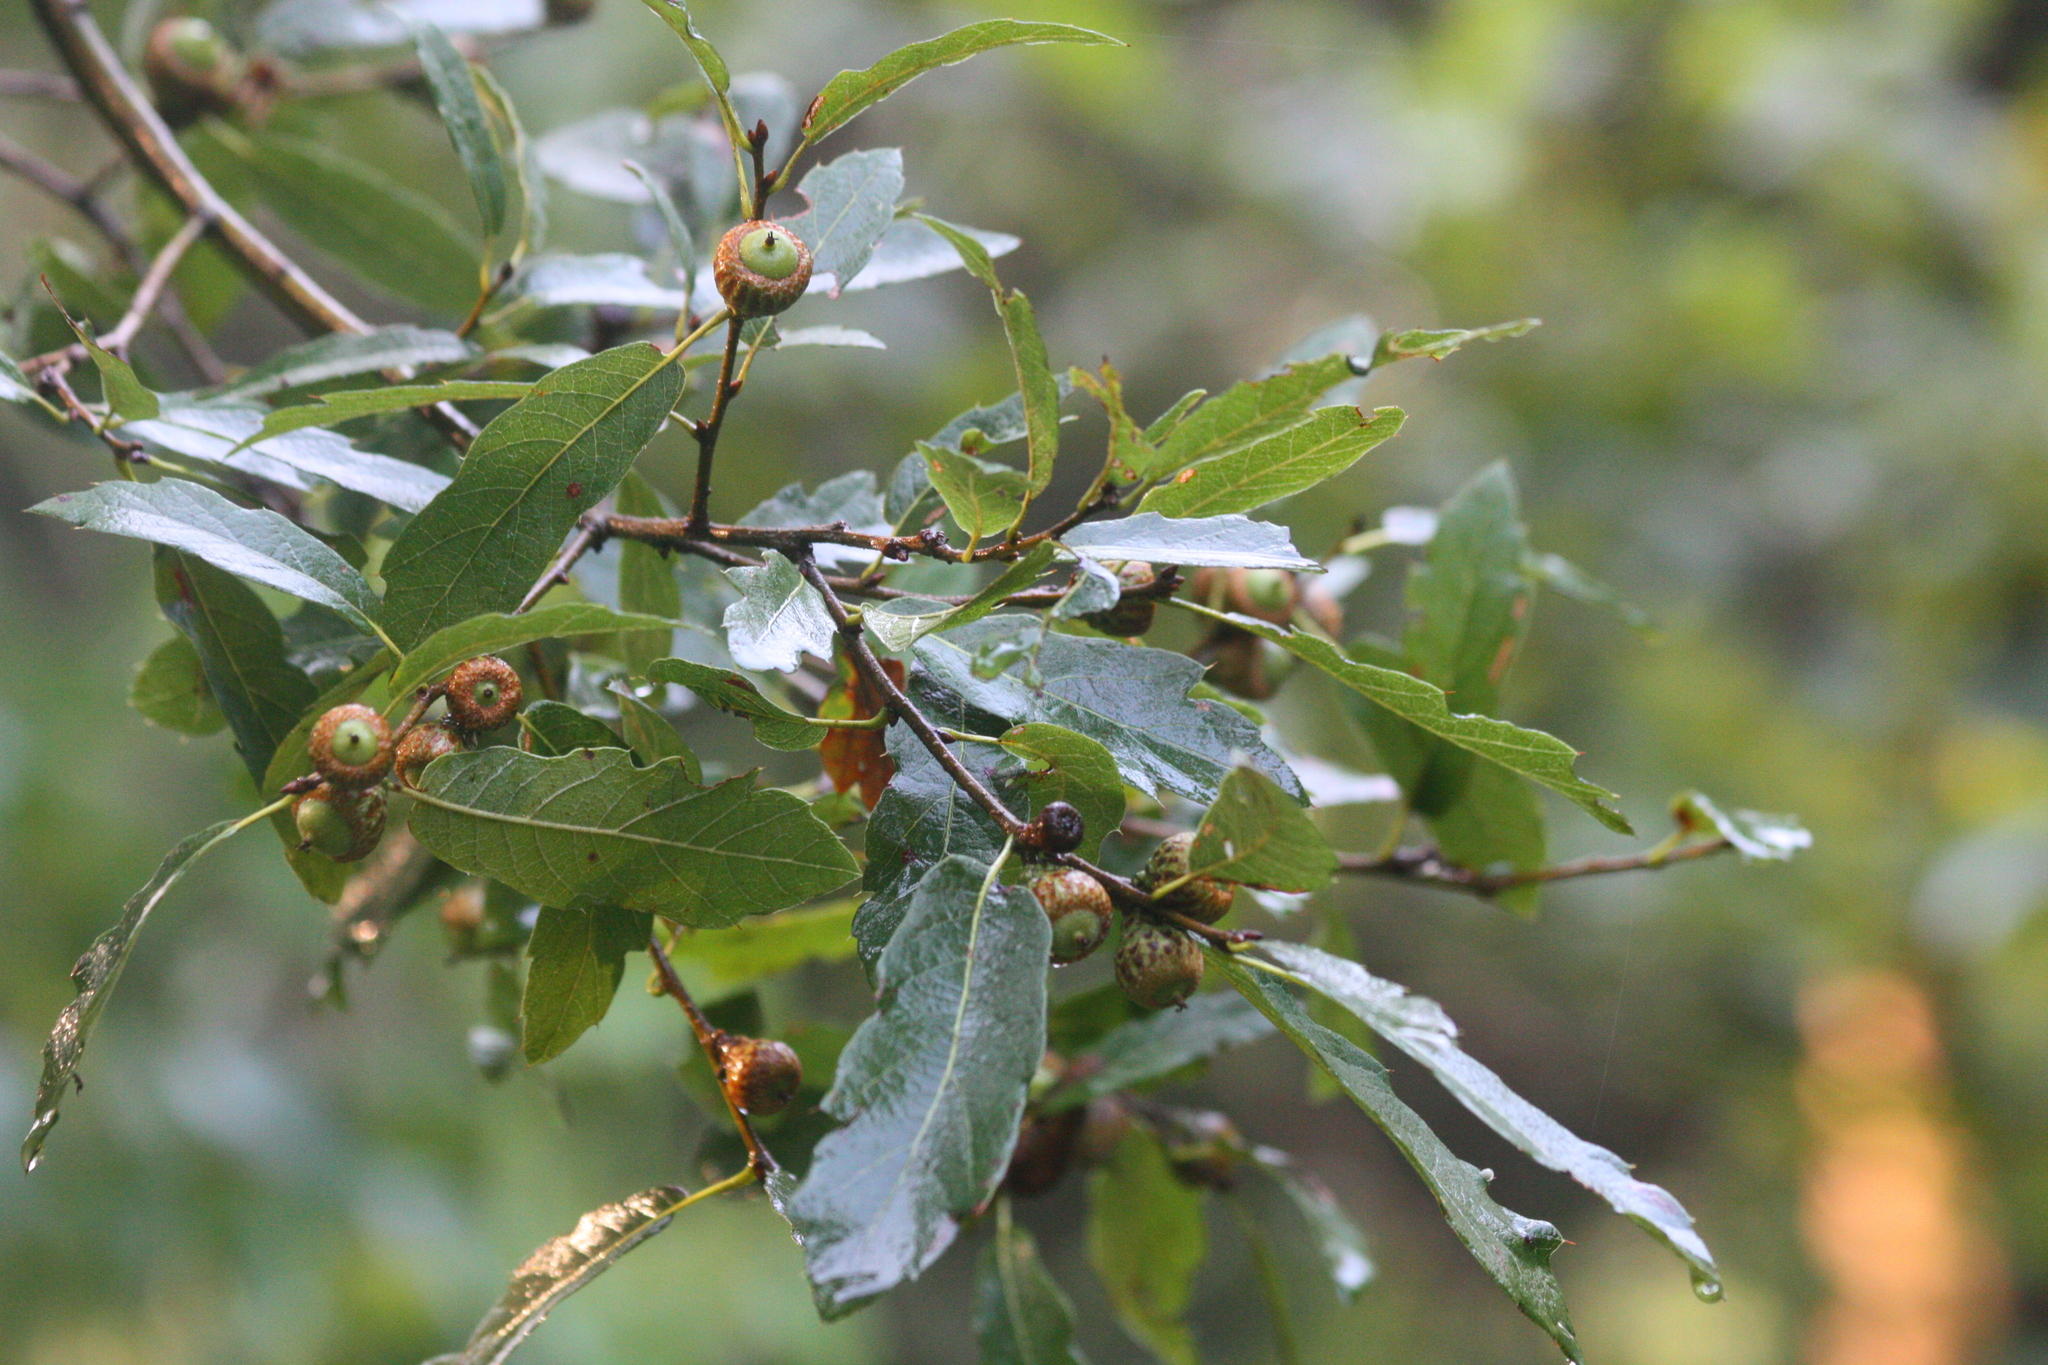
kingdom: Plantae
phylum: Tracheophyta
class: Magnoliopsida
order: Fagales
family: Fagaceae
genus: Quercus
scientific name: Quercus castanea
